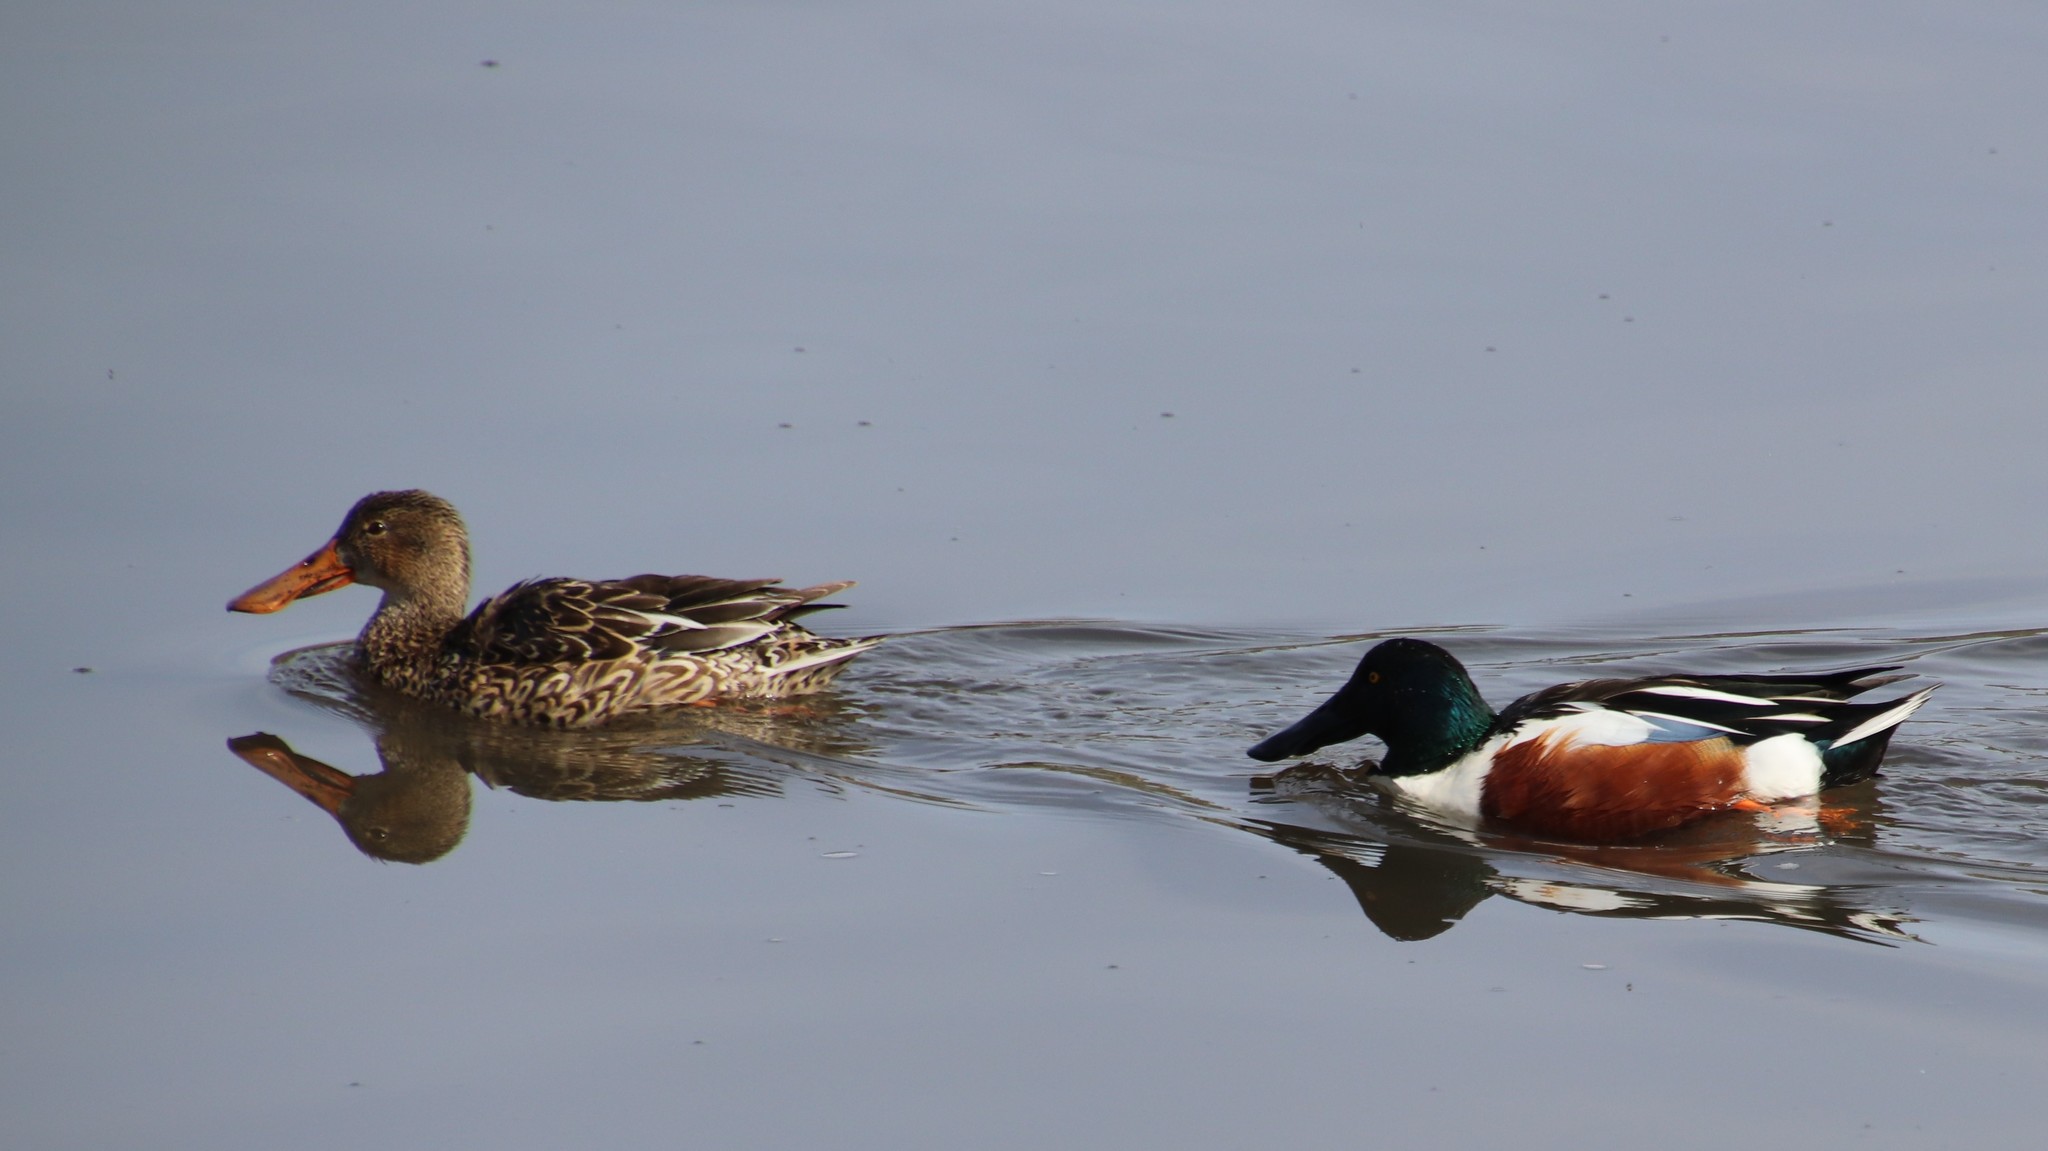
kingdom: Animalia
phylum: Chordata
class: Aves
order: Anseriformes
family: Anatidae
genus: Spatula
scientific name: Spatula clypeata
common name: Northern shoveler
